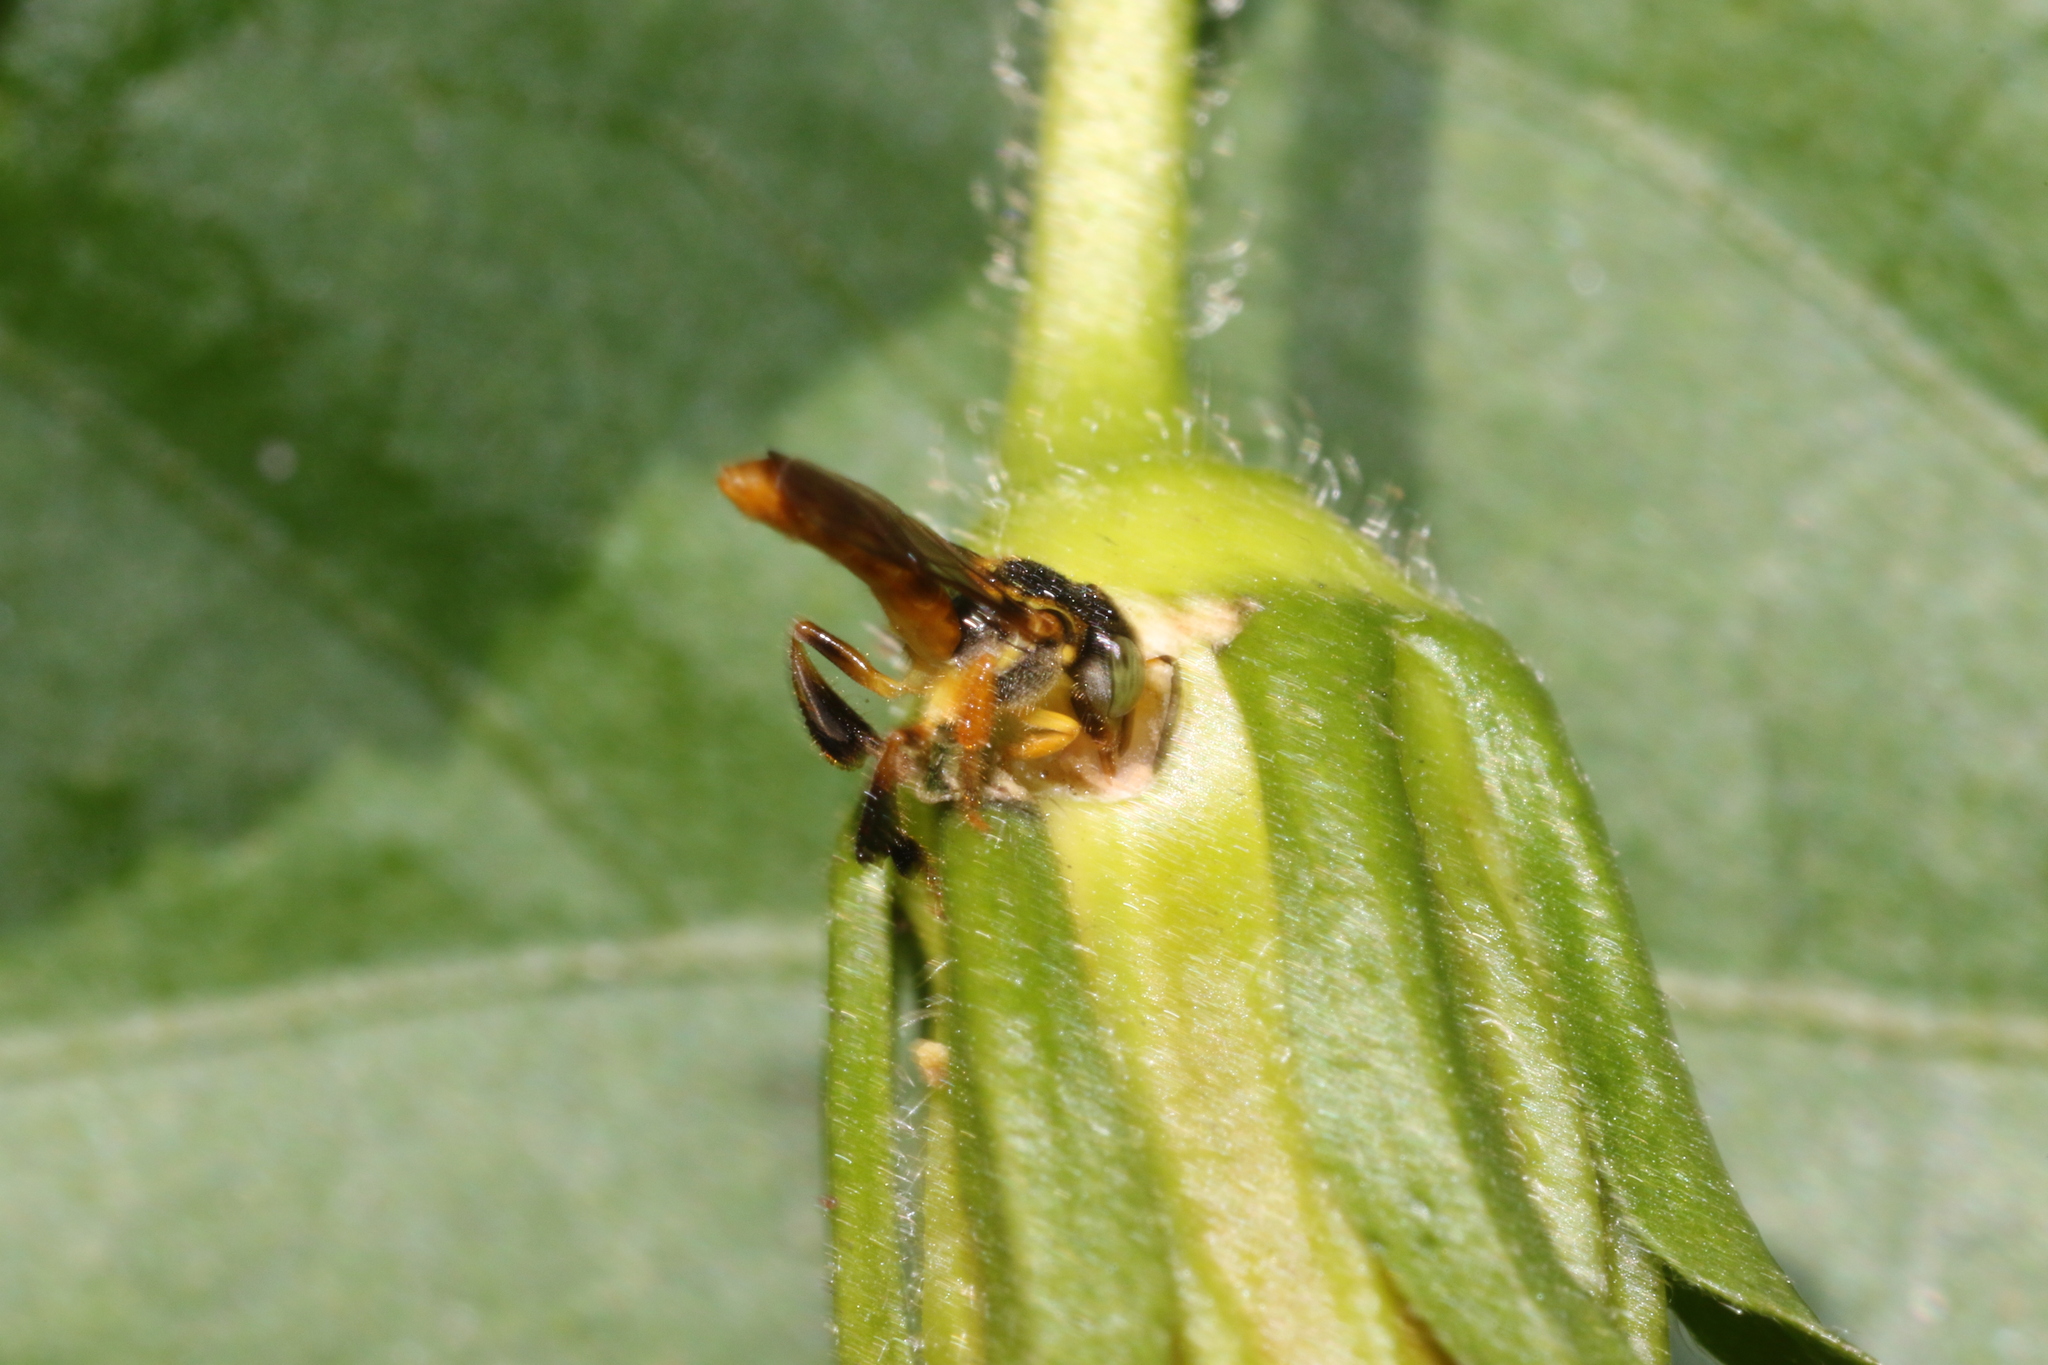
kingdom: Animalia
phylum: Arthropoda
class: Insecta
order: Hymenoptera
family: Apidae
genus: Tetragonisca
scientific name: Tetragonisca angustula
